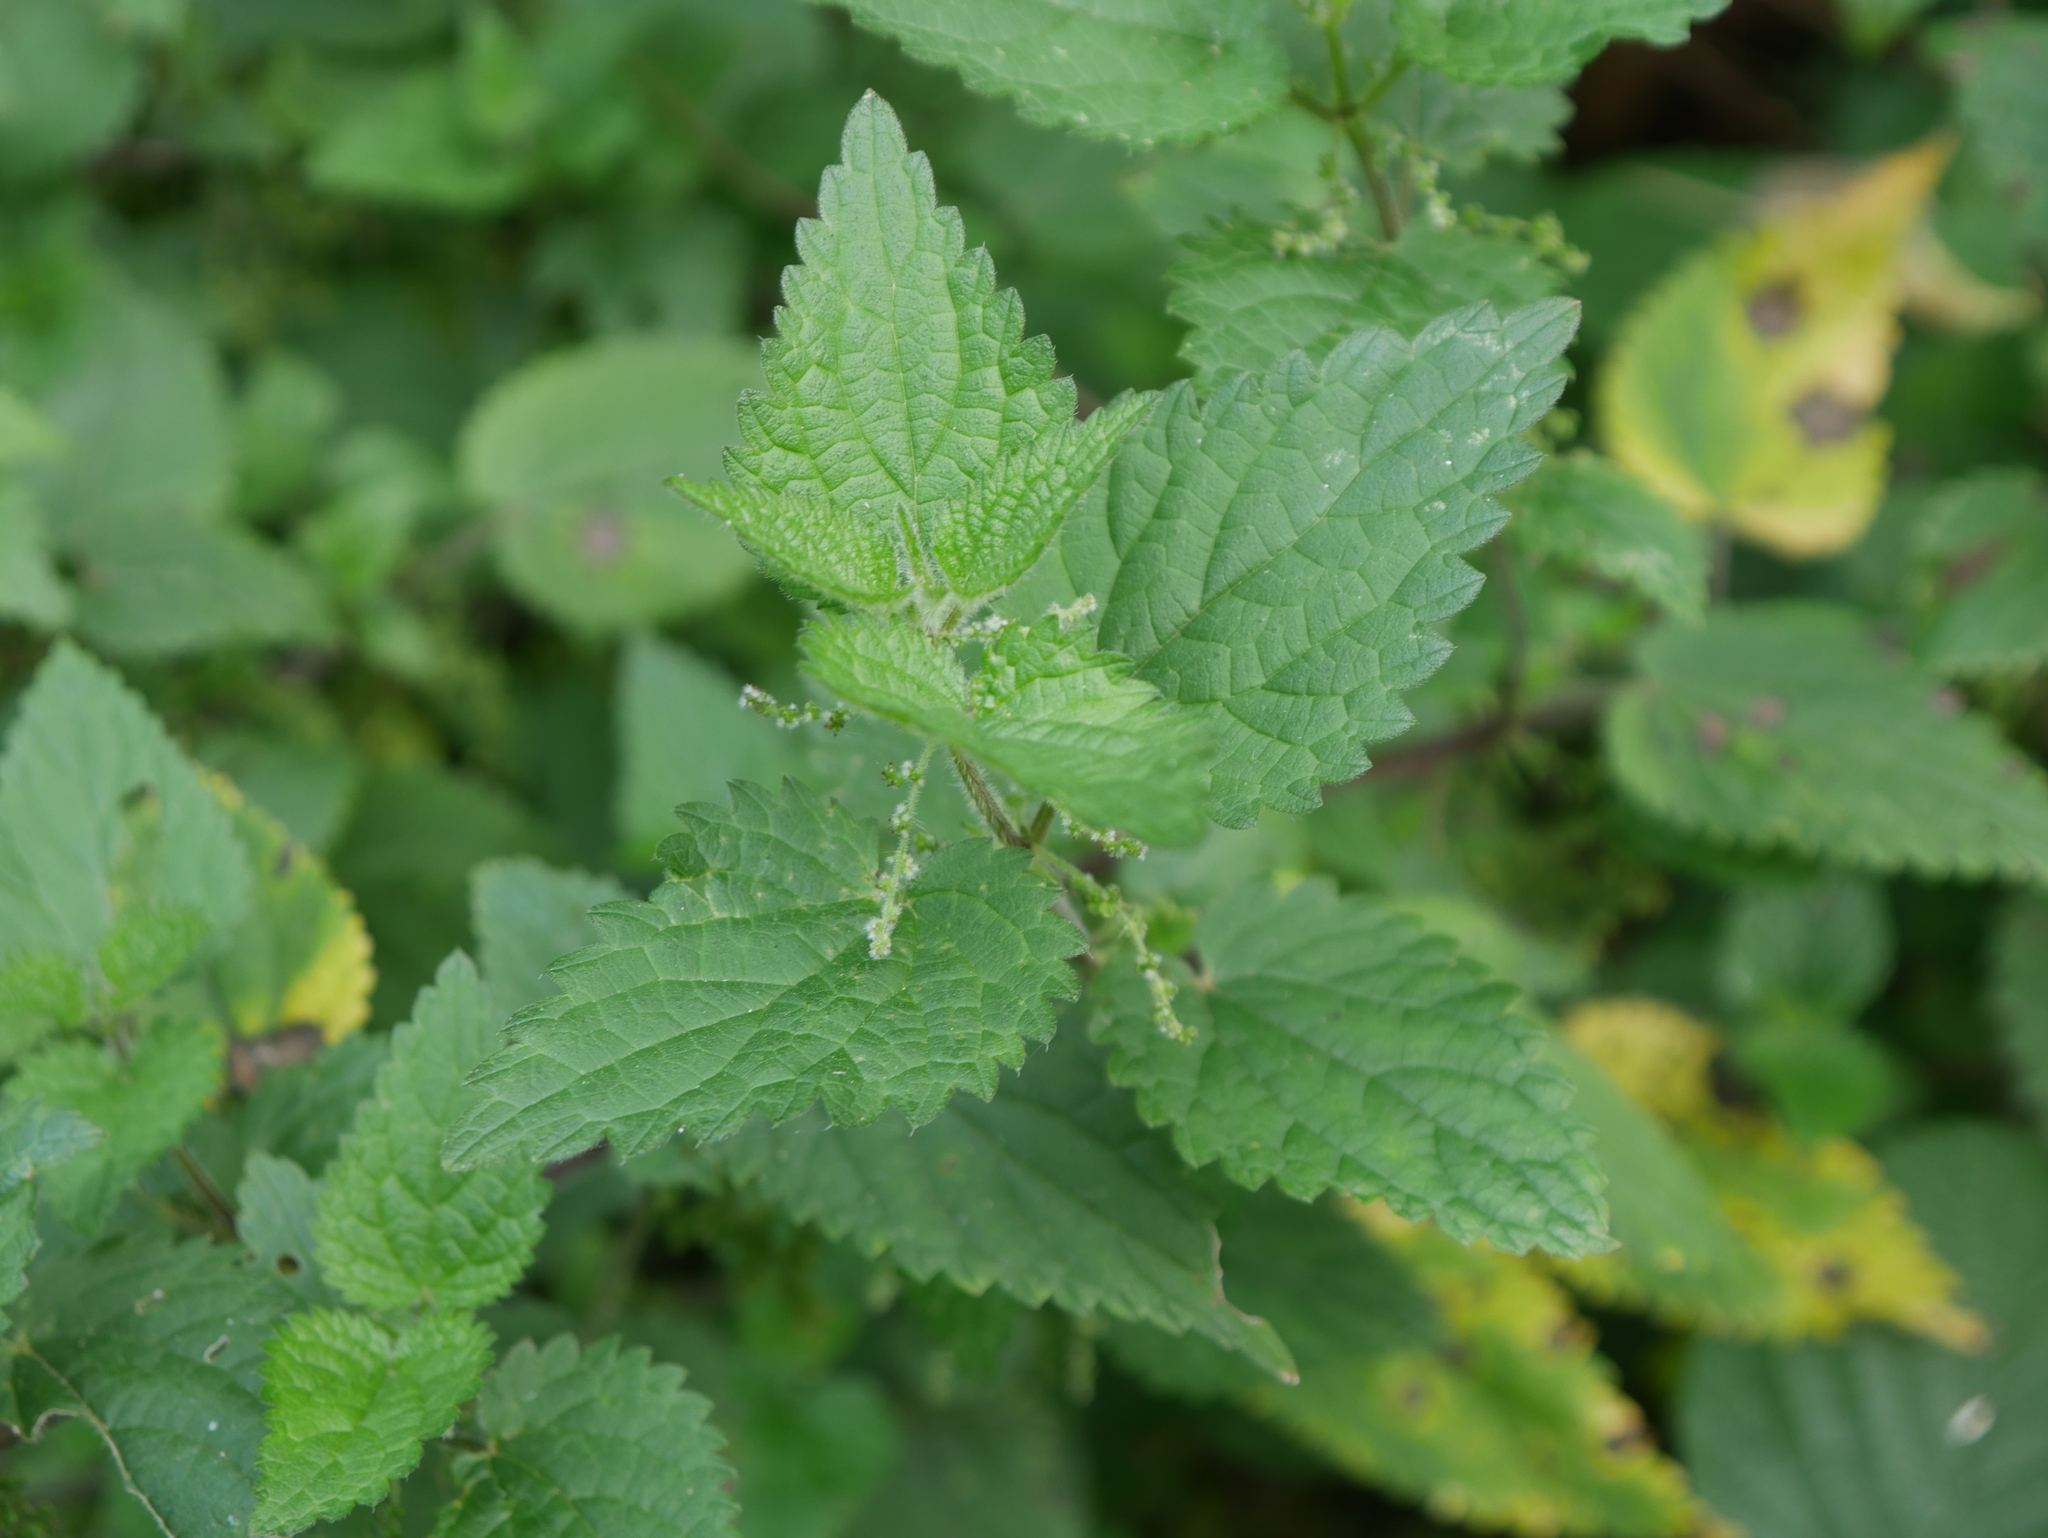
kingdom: Plantae
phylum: Tracheophyta
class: Magnoliopsida
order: Rosales
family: Urticaceae
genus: Urtica
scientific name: Urtica dioica
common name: Common nettle
